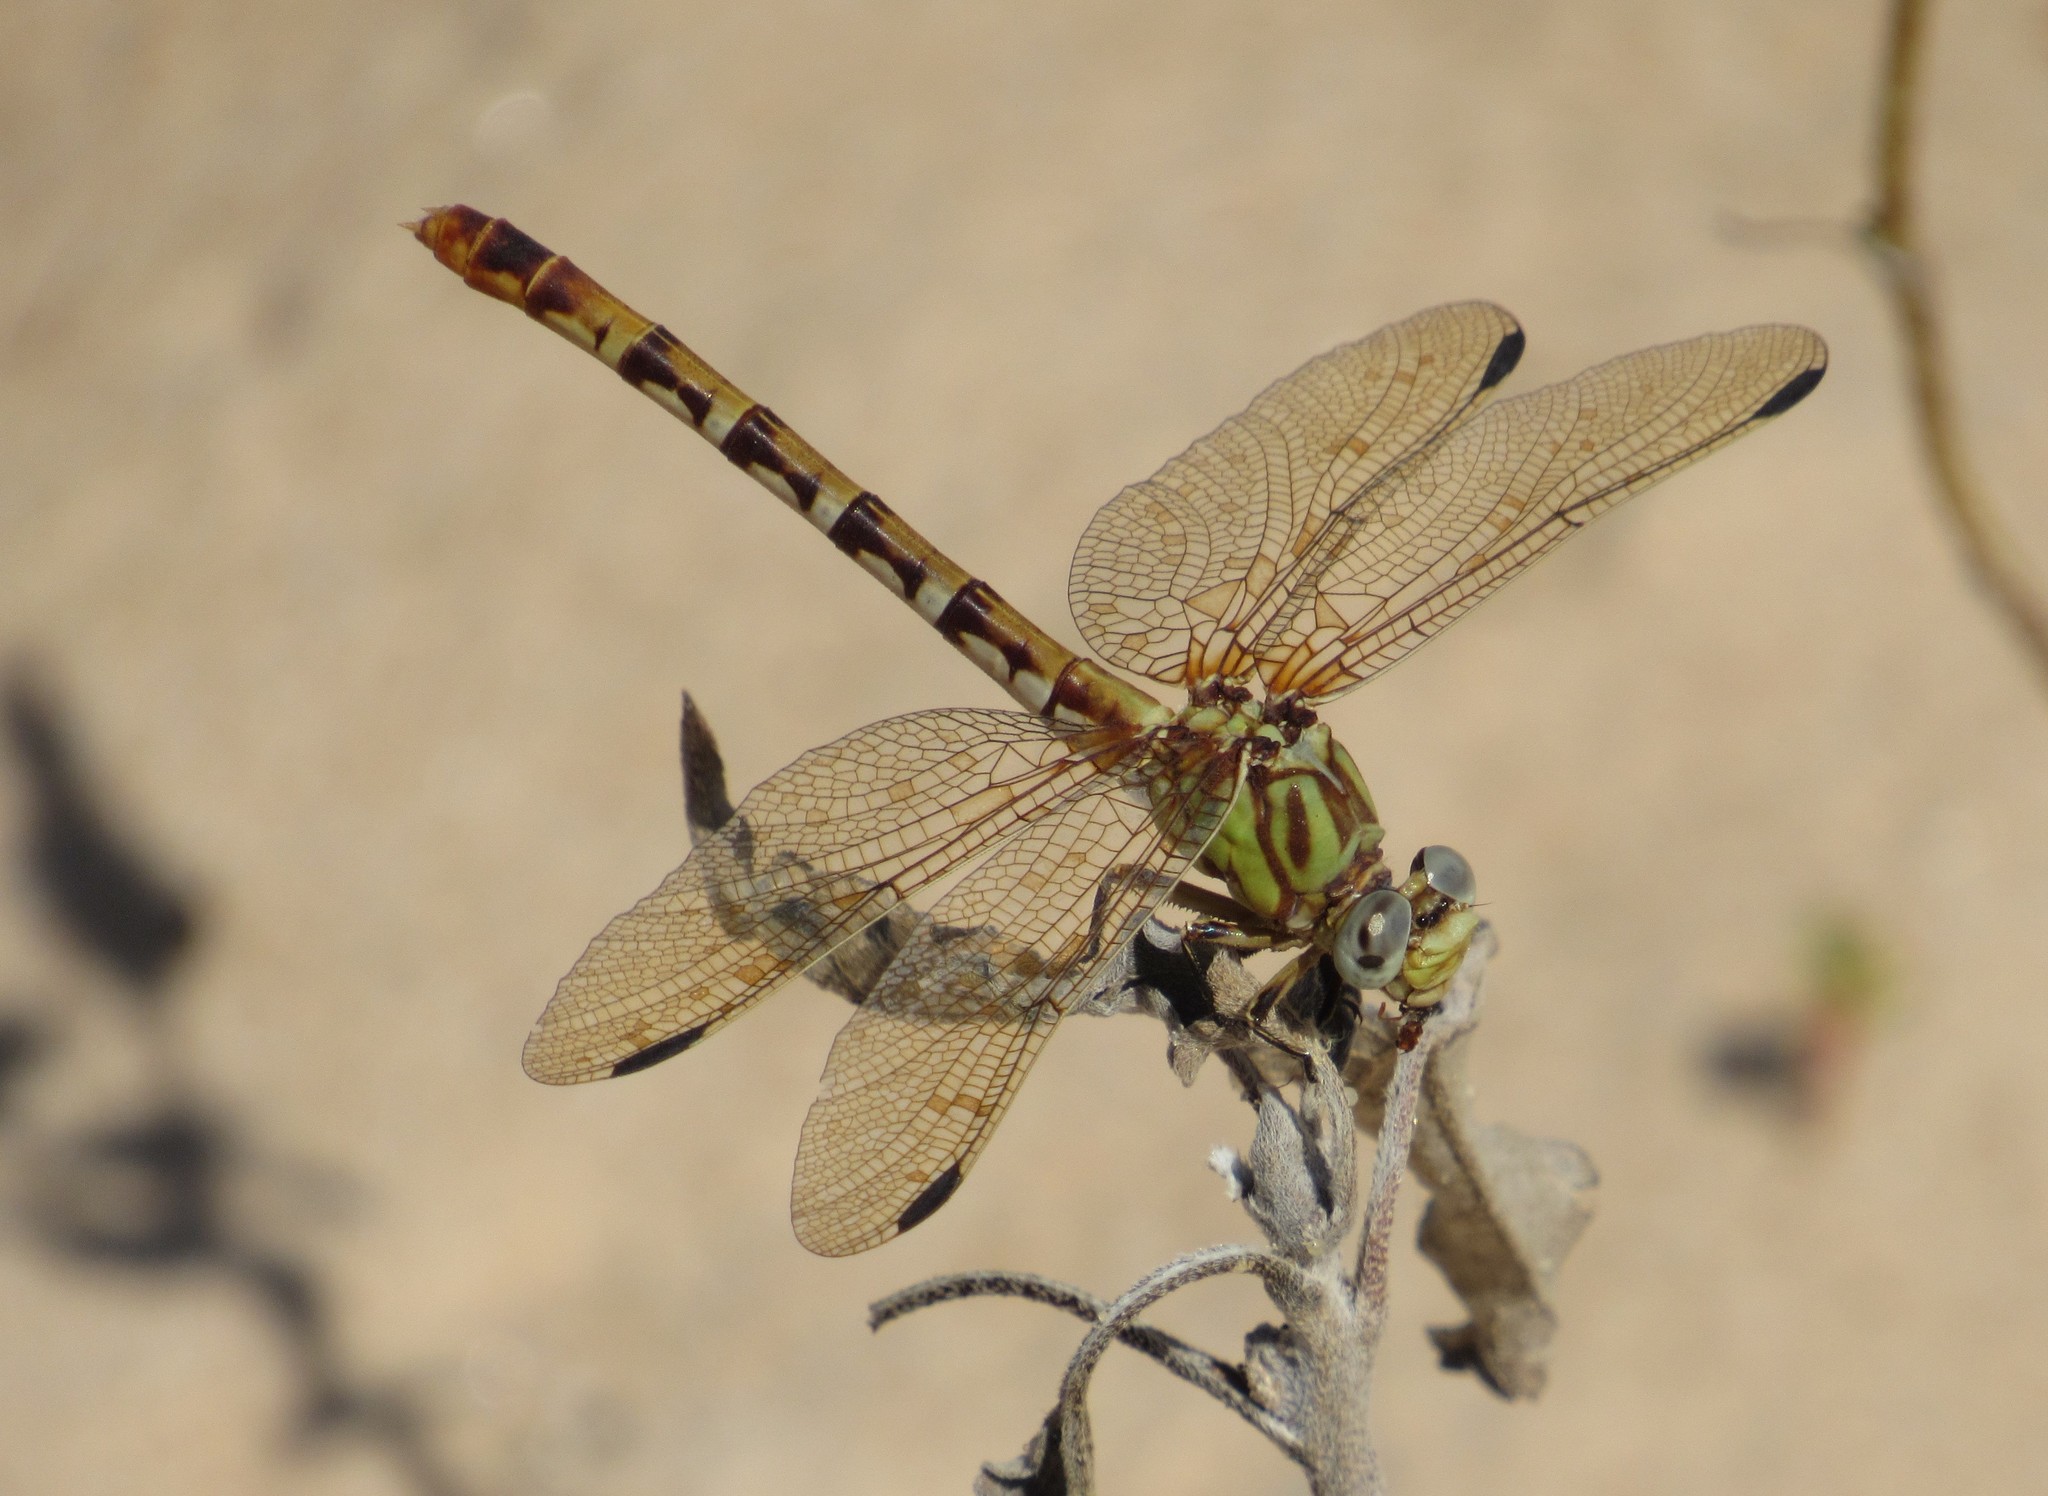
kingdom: Animalia
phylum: Arthropoda
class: Insecta
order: Odonata
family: Gomphidae
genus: Erpetogomphus
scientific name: Erpetogomphus designatus
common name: Eastern ringtail
